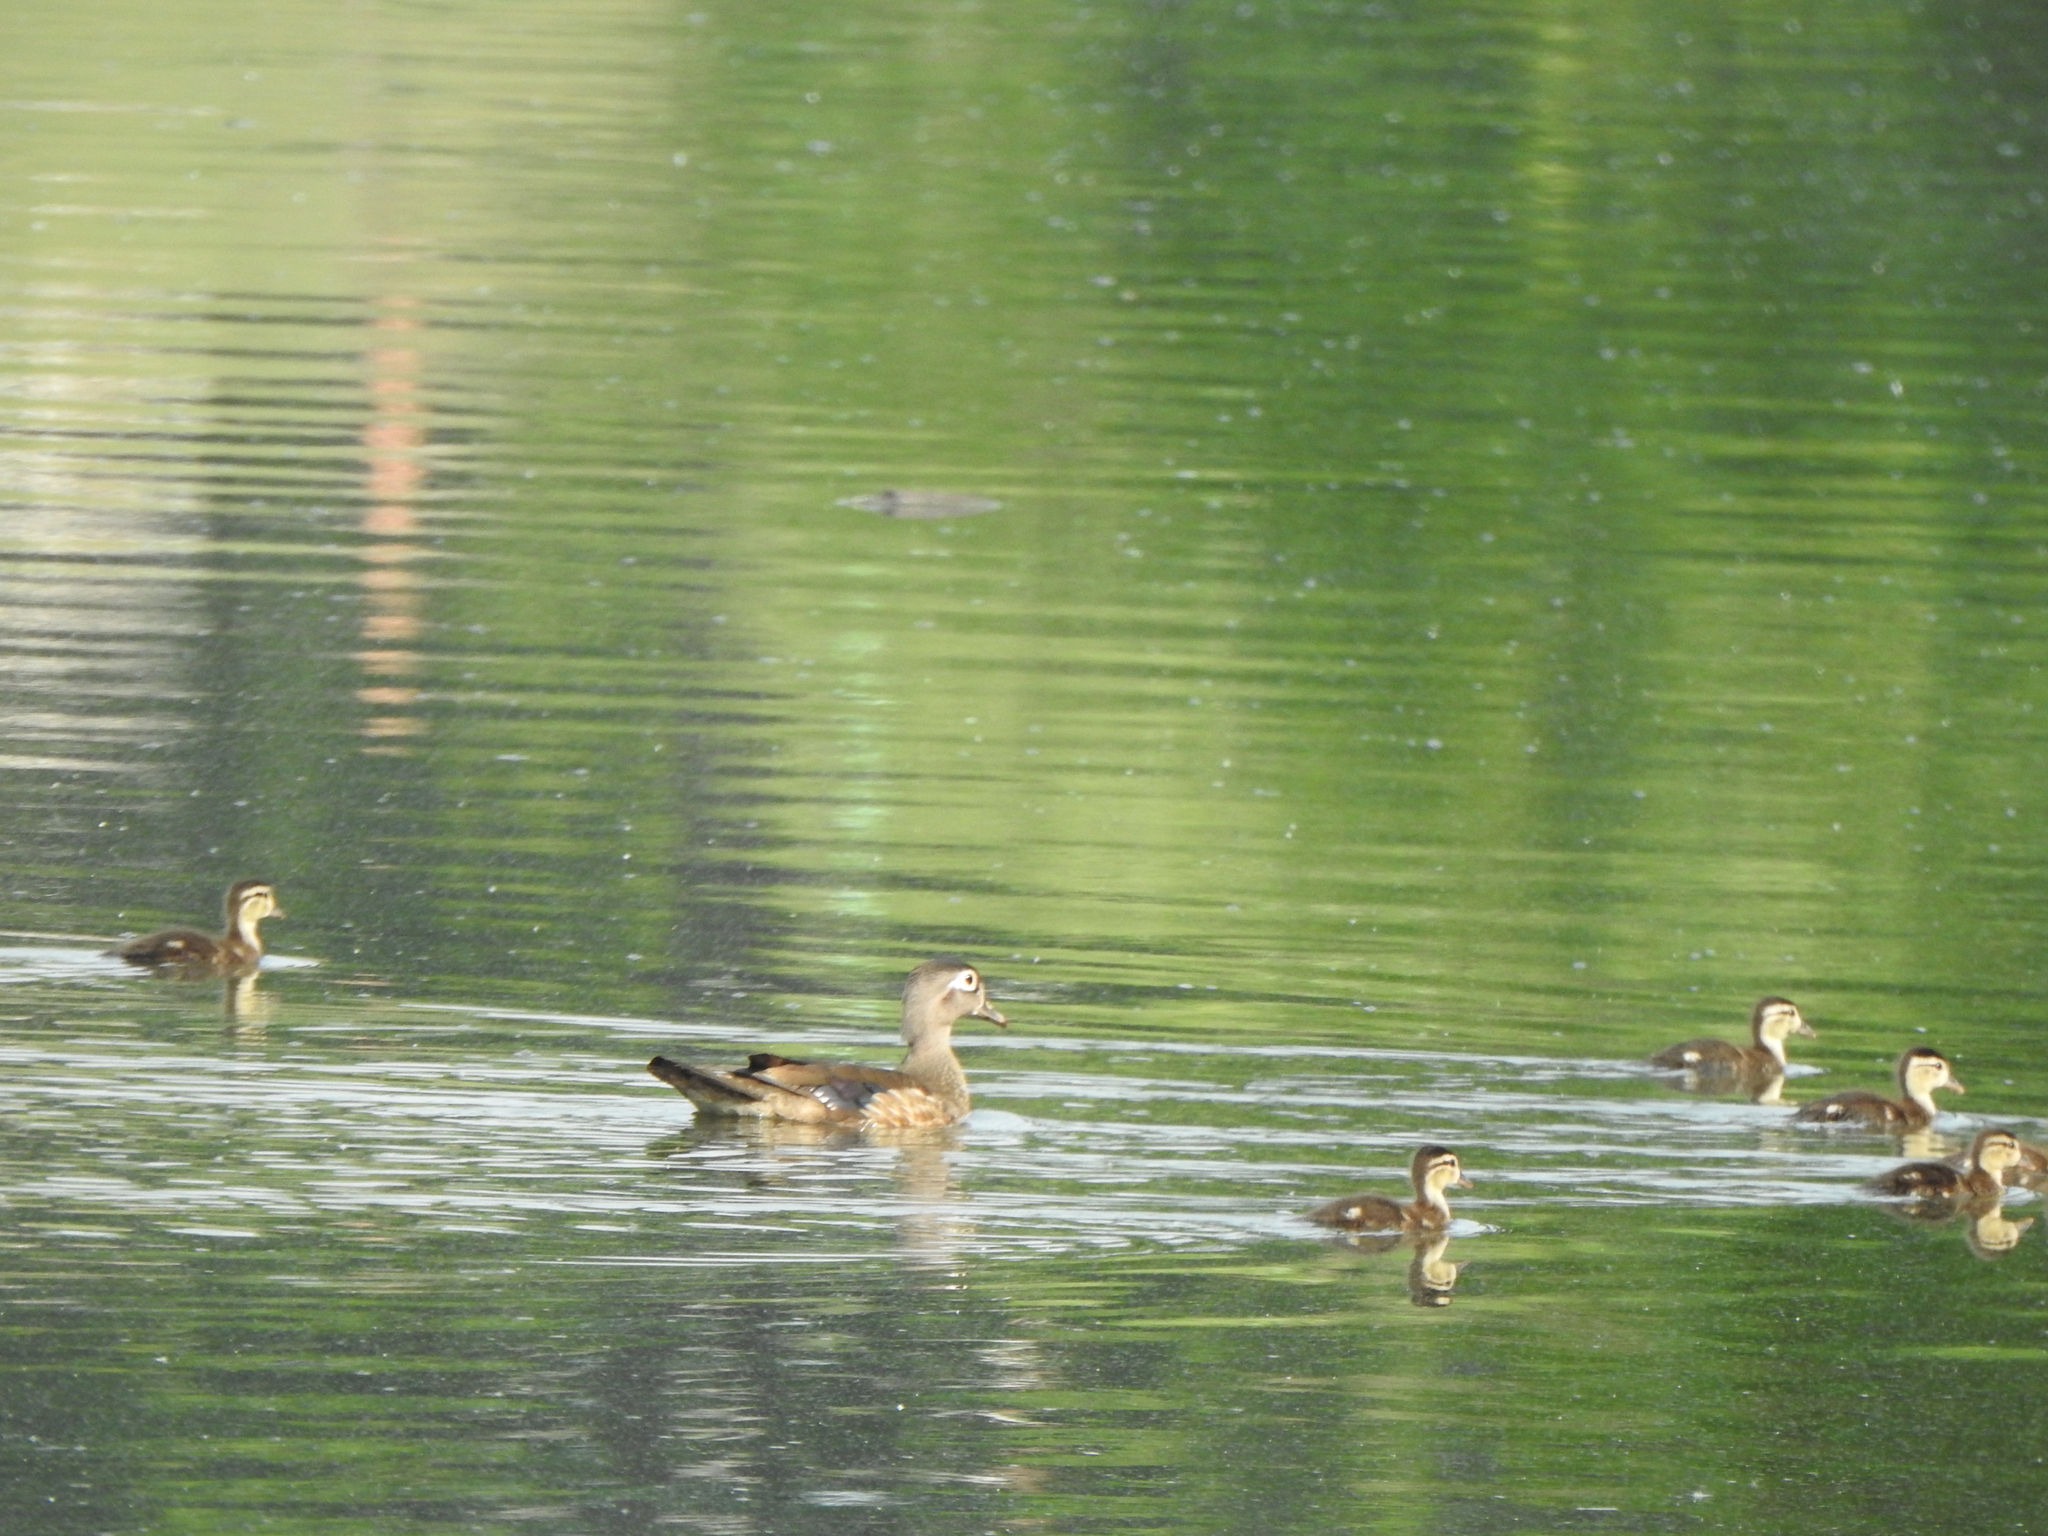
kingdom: Animalia
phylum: Chordata
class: Aves
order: Anseriformes
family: Anatidae
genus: Aix
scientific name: Aix sponsa
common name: Wood duck
